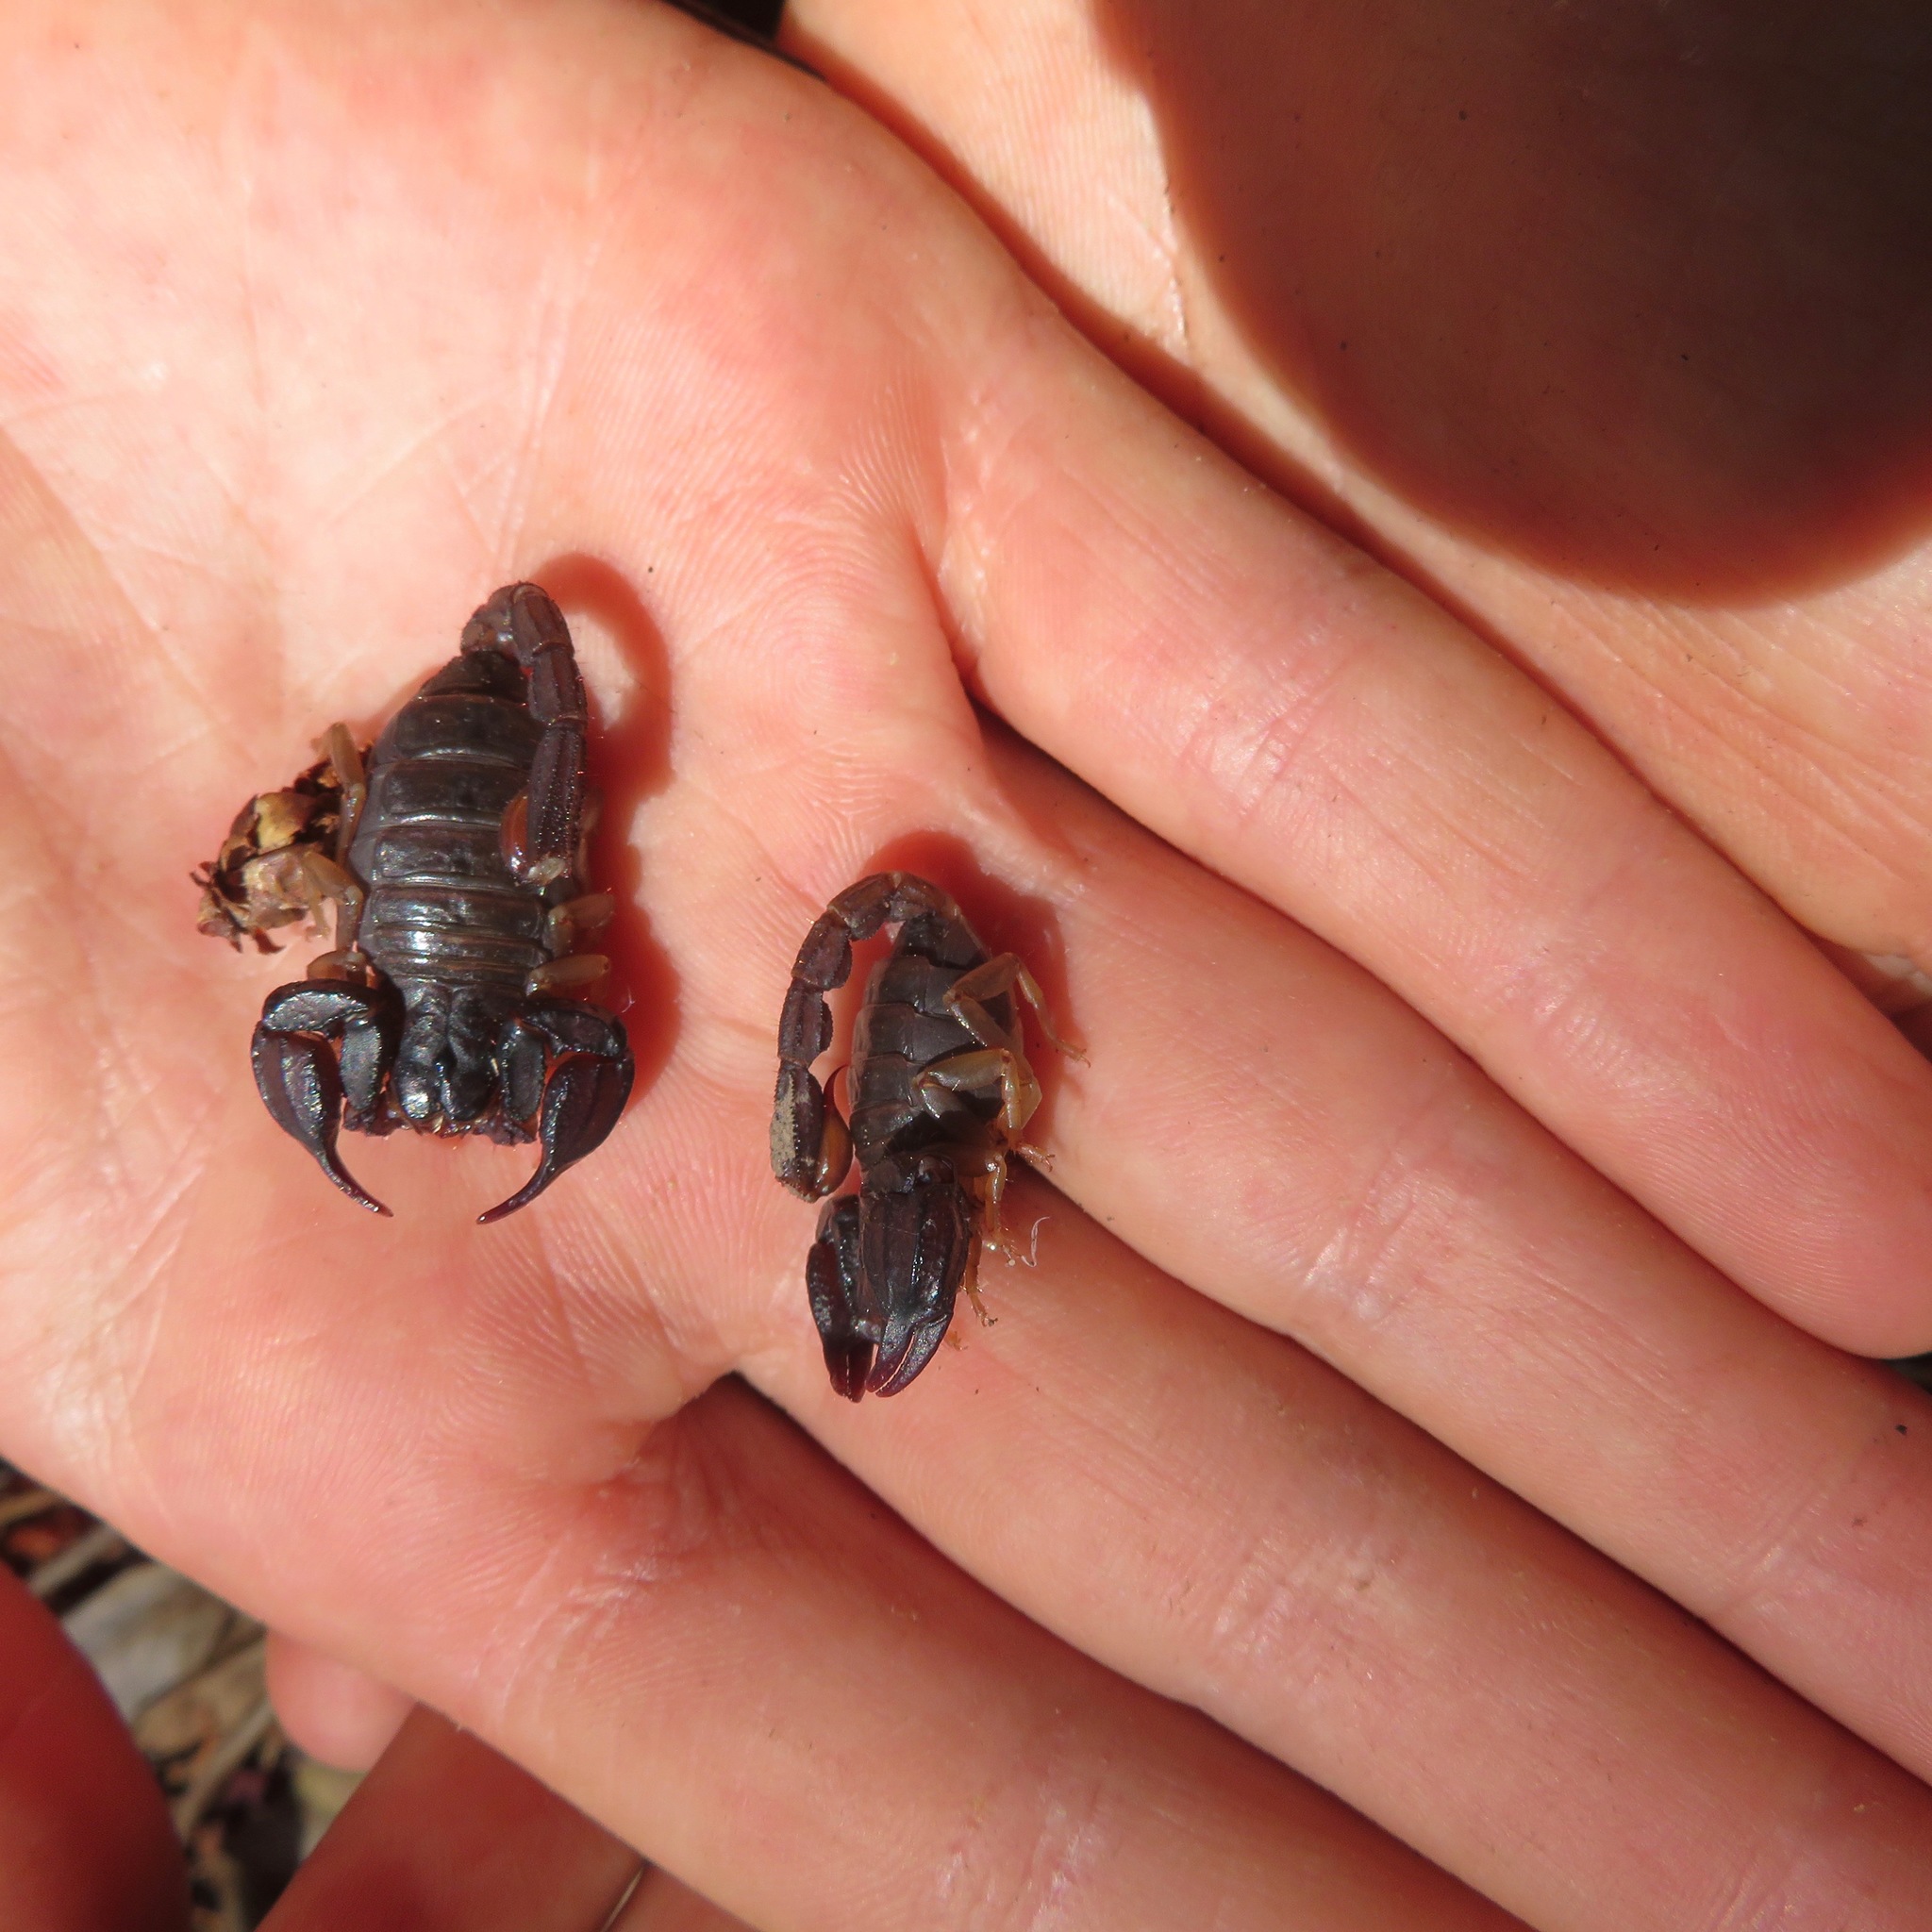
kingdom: Animalia
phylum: Arthropoda
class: Arachnida
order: Scorpiones
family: Chactidae
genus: Uroctonus
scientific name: Uroctonus mordax
